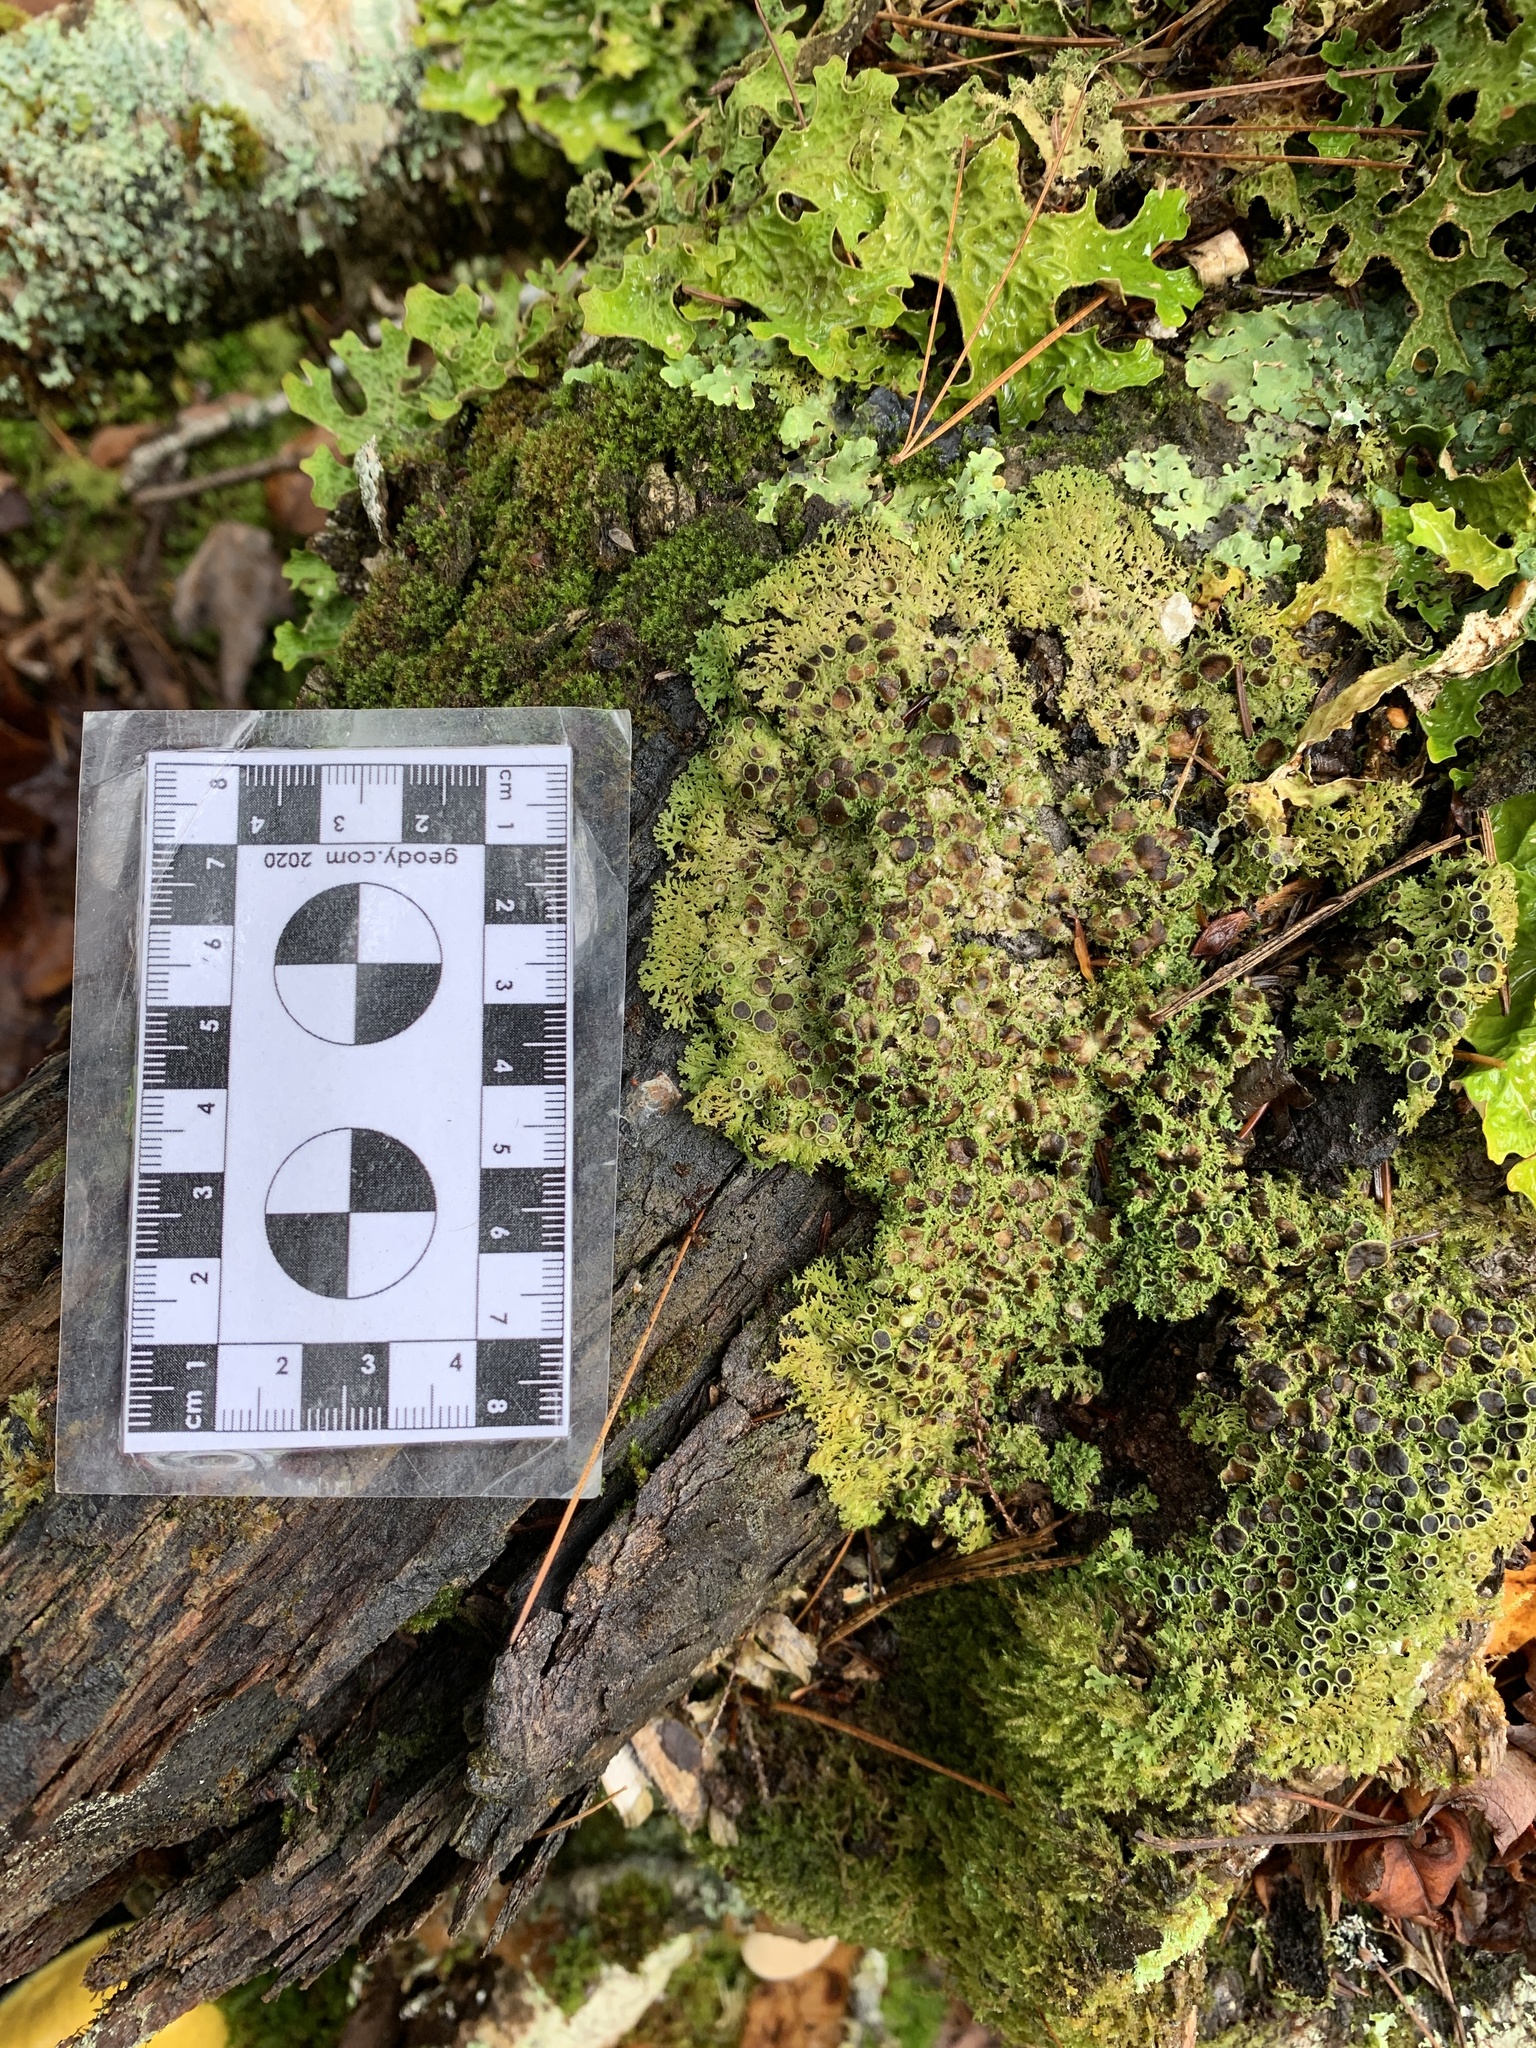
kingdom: Fungi
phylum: Ascomycota
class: Lecanoromycetes
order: Caliciales
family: Physciaceae
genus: Kurokawia
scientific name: Kurokawia palmulata
